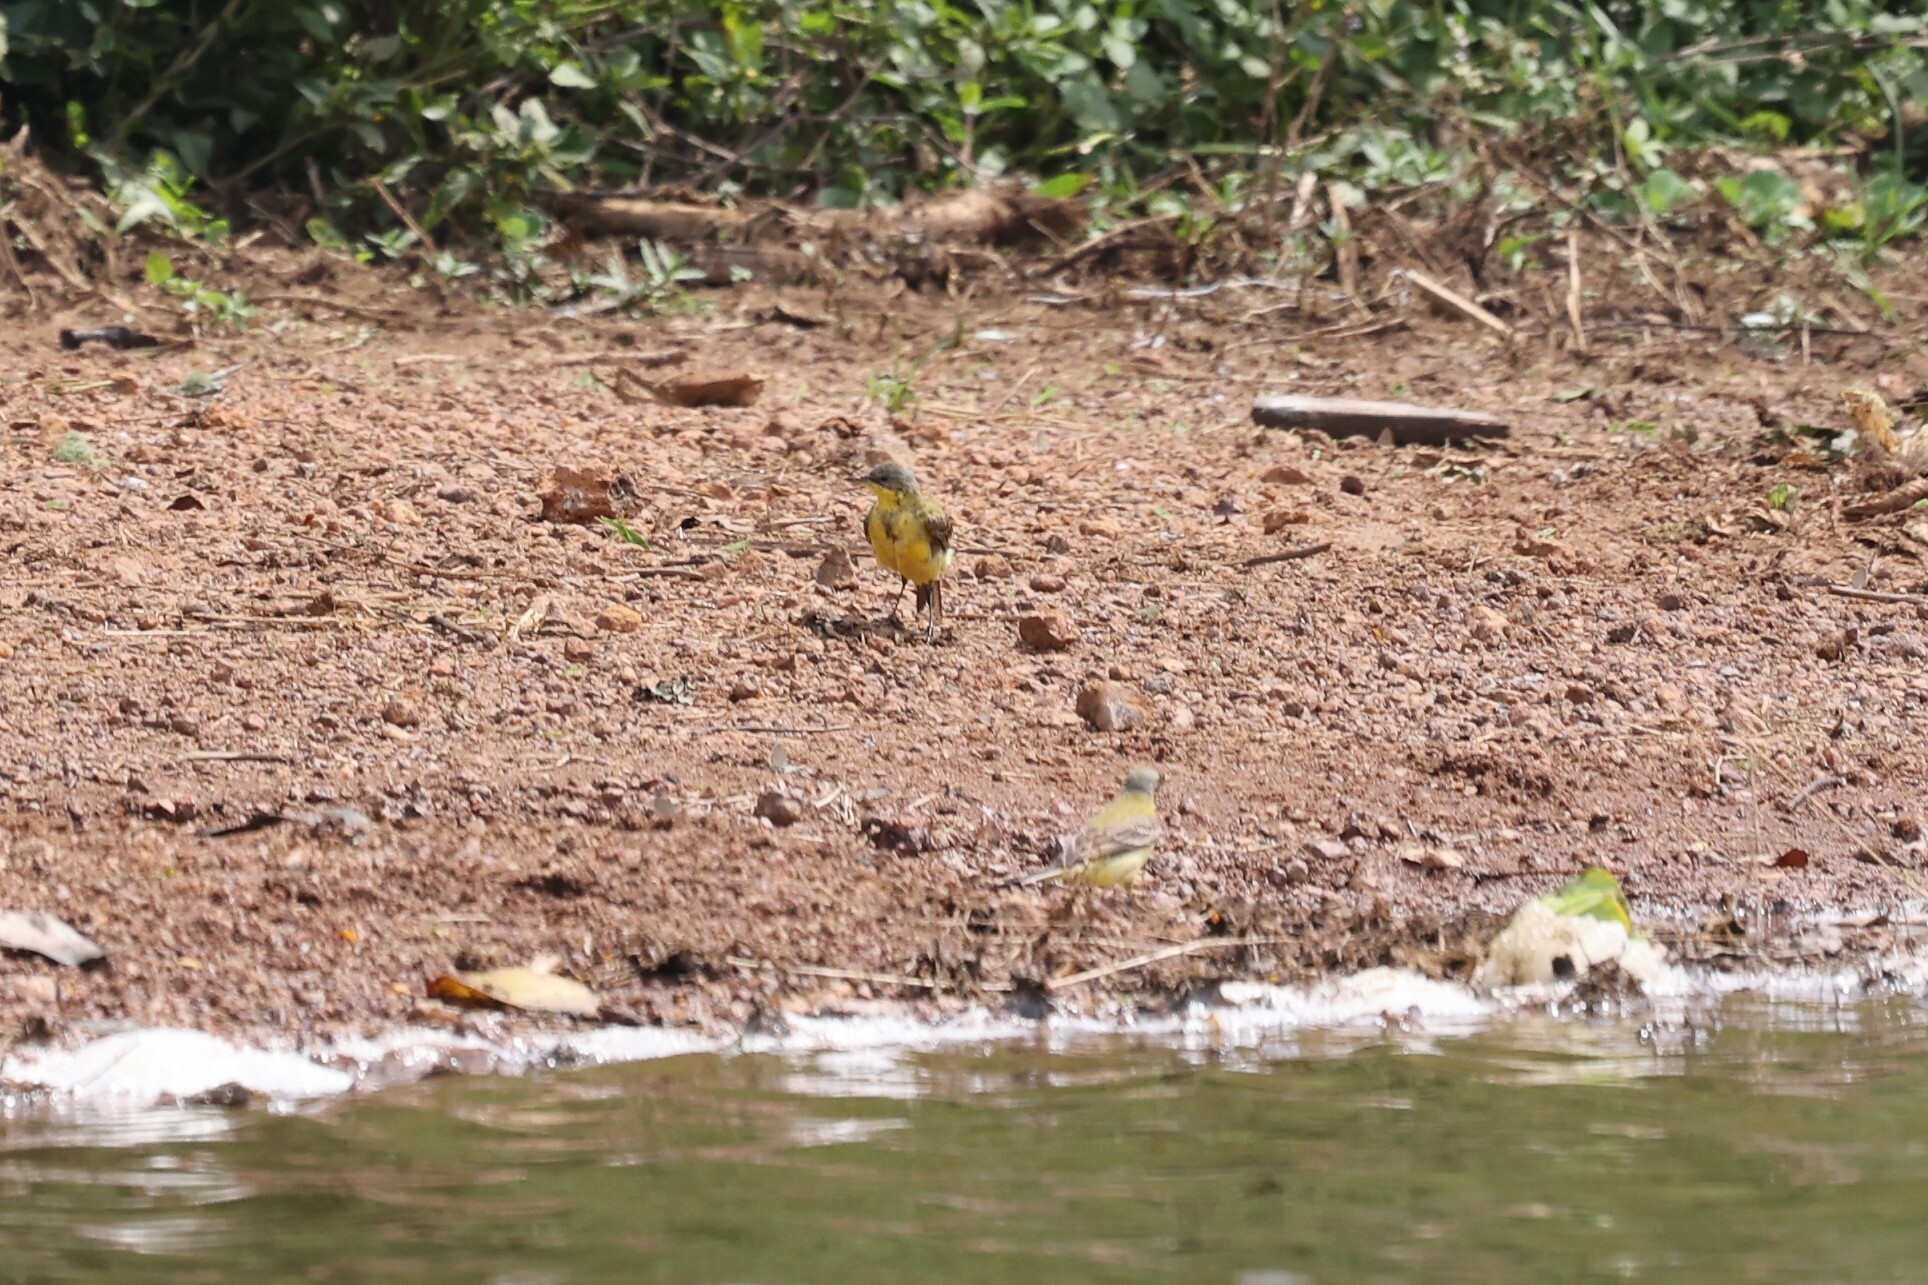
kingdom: Animalia
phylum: Chordata
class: Aves
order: Passeriformes
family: Motacillidae
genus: Motacilla
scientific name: Motacilla flava
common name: Western yellow wagtail
